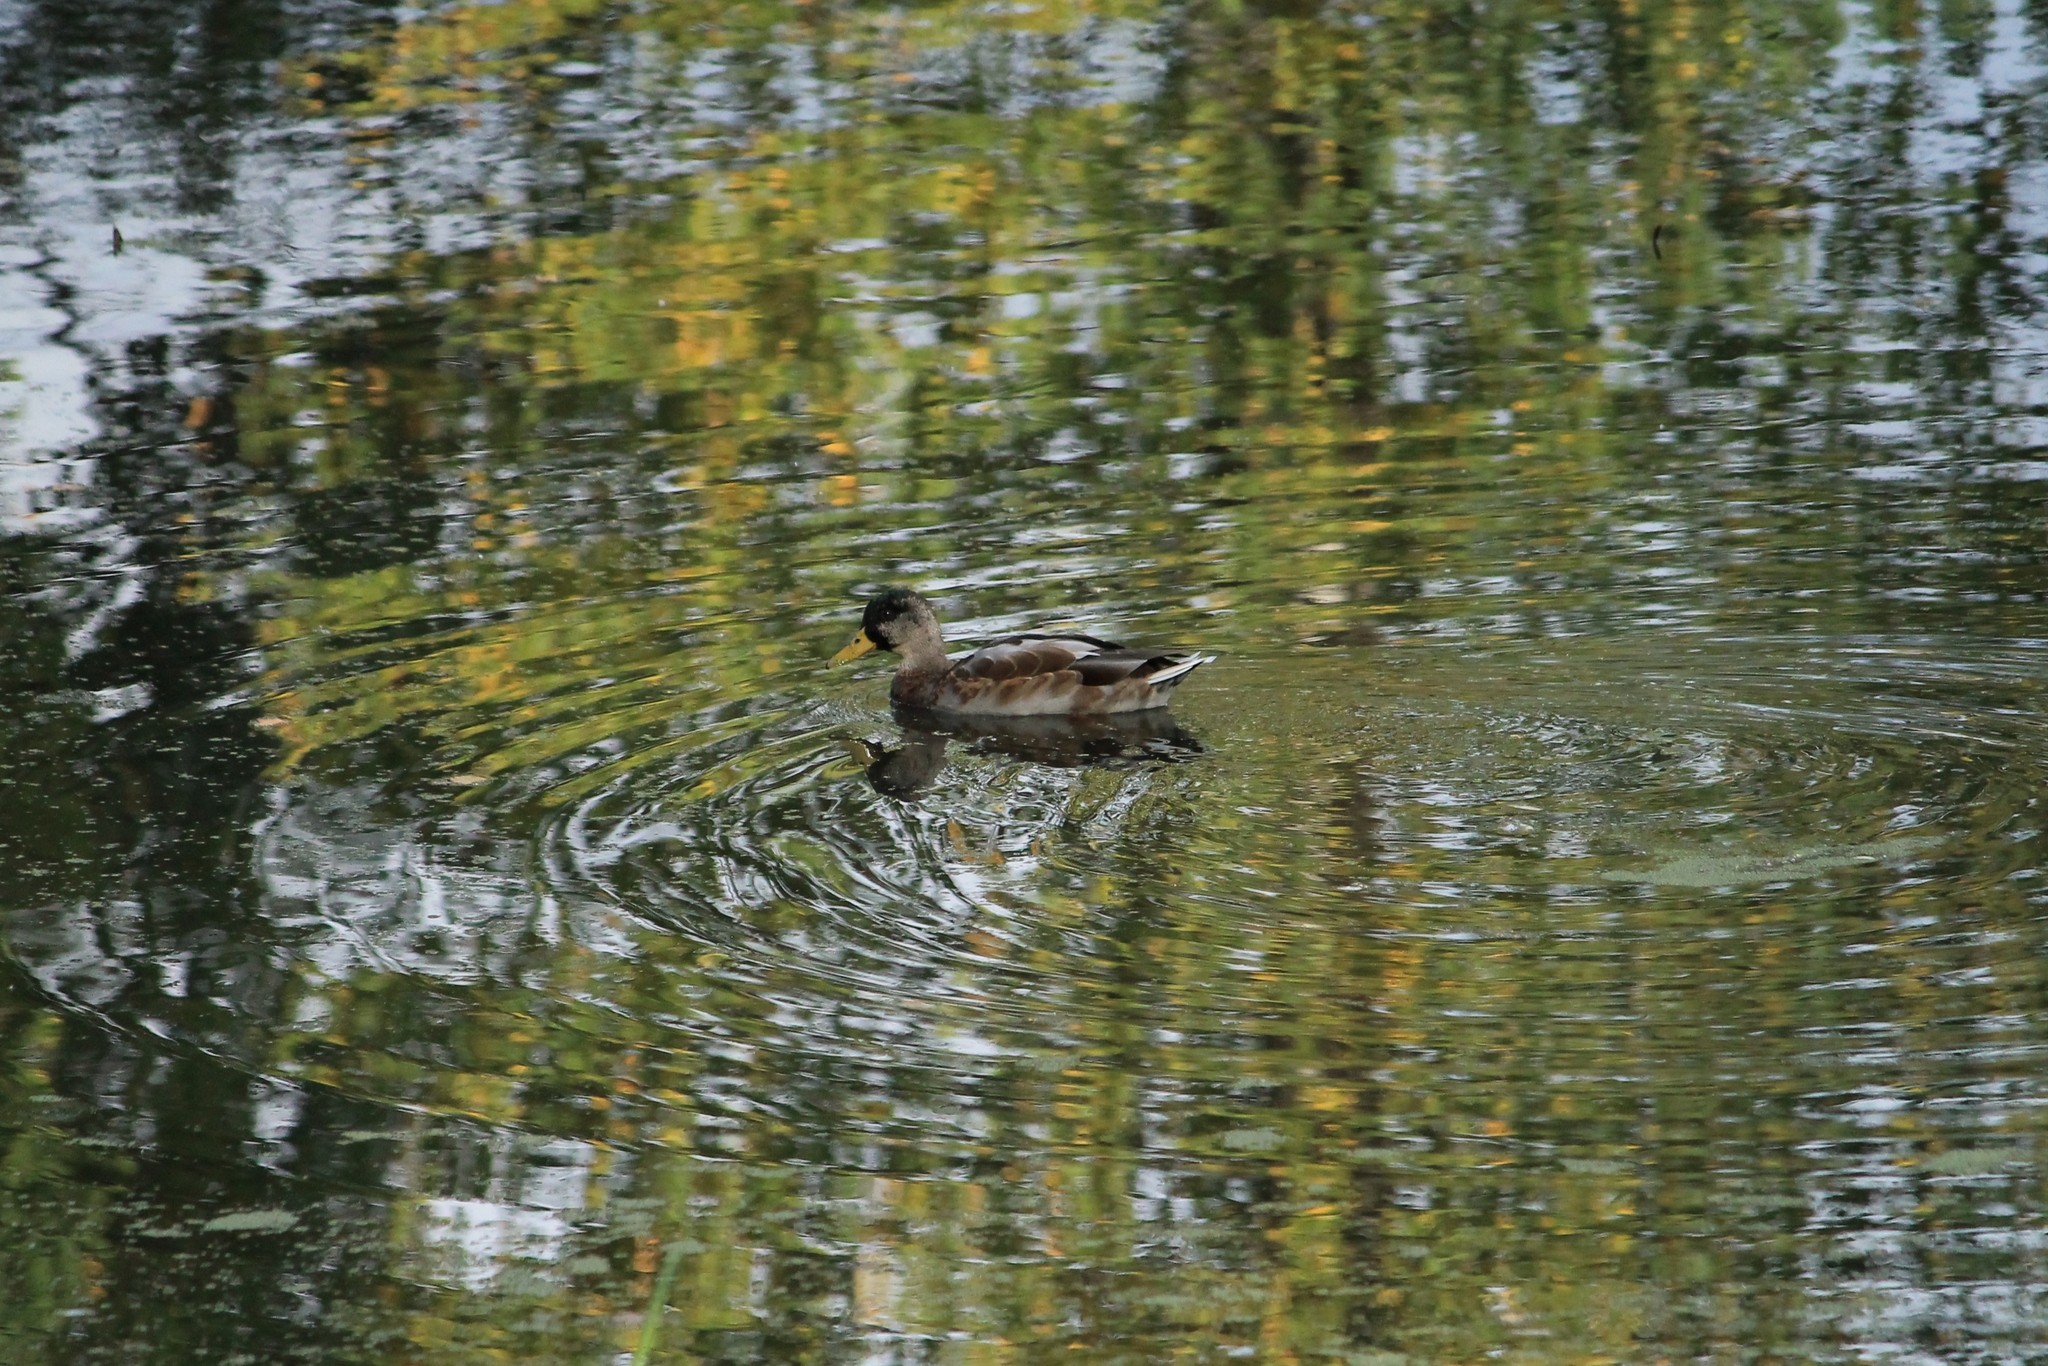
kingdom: Animalia
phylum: Chordata
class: Aves
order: Anseriformes
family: Anatidae
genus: Anas
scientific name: Anas platyrhynchos
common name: Mallard
